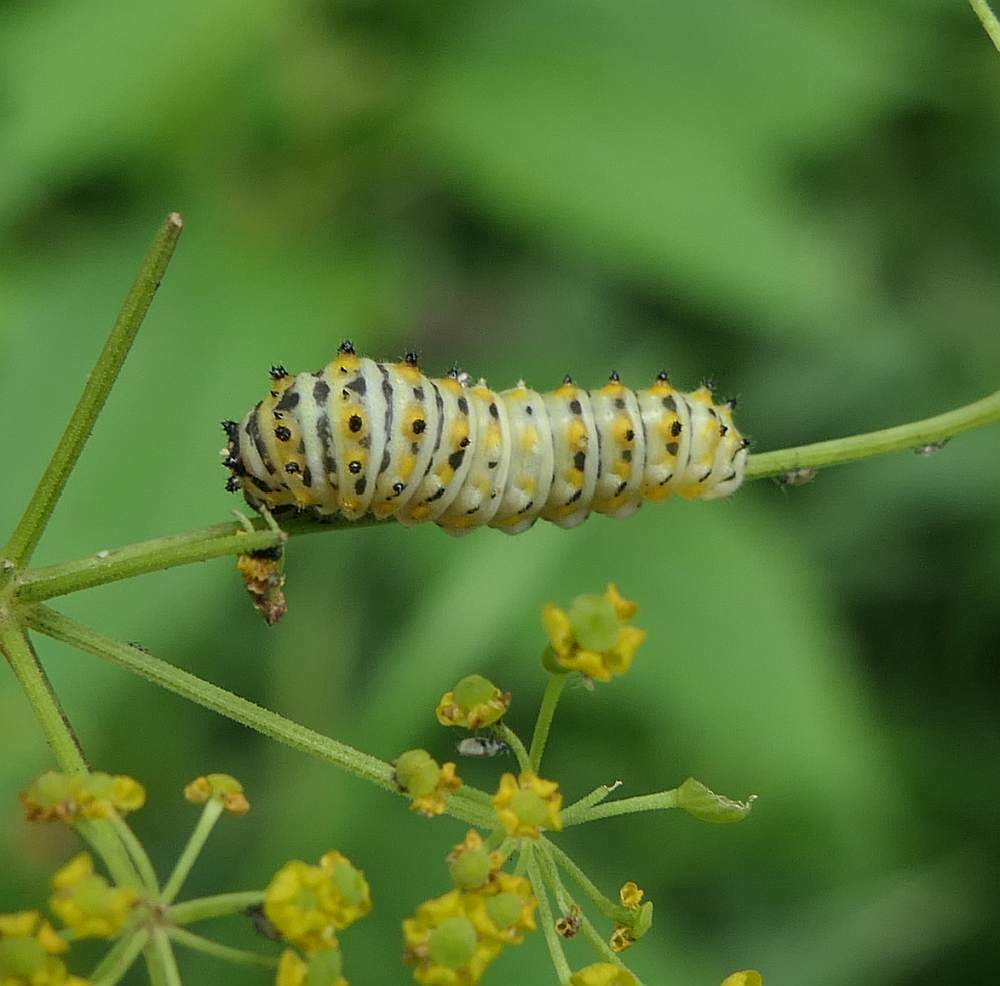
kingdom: Animalia
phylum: Arthropoda
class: Insecta
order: Lepidoptera
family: Papilionidae
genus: Papilio
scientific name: Papilio polyxenes
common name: Black swallowtail
